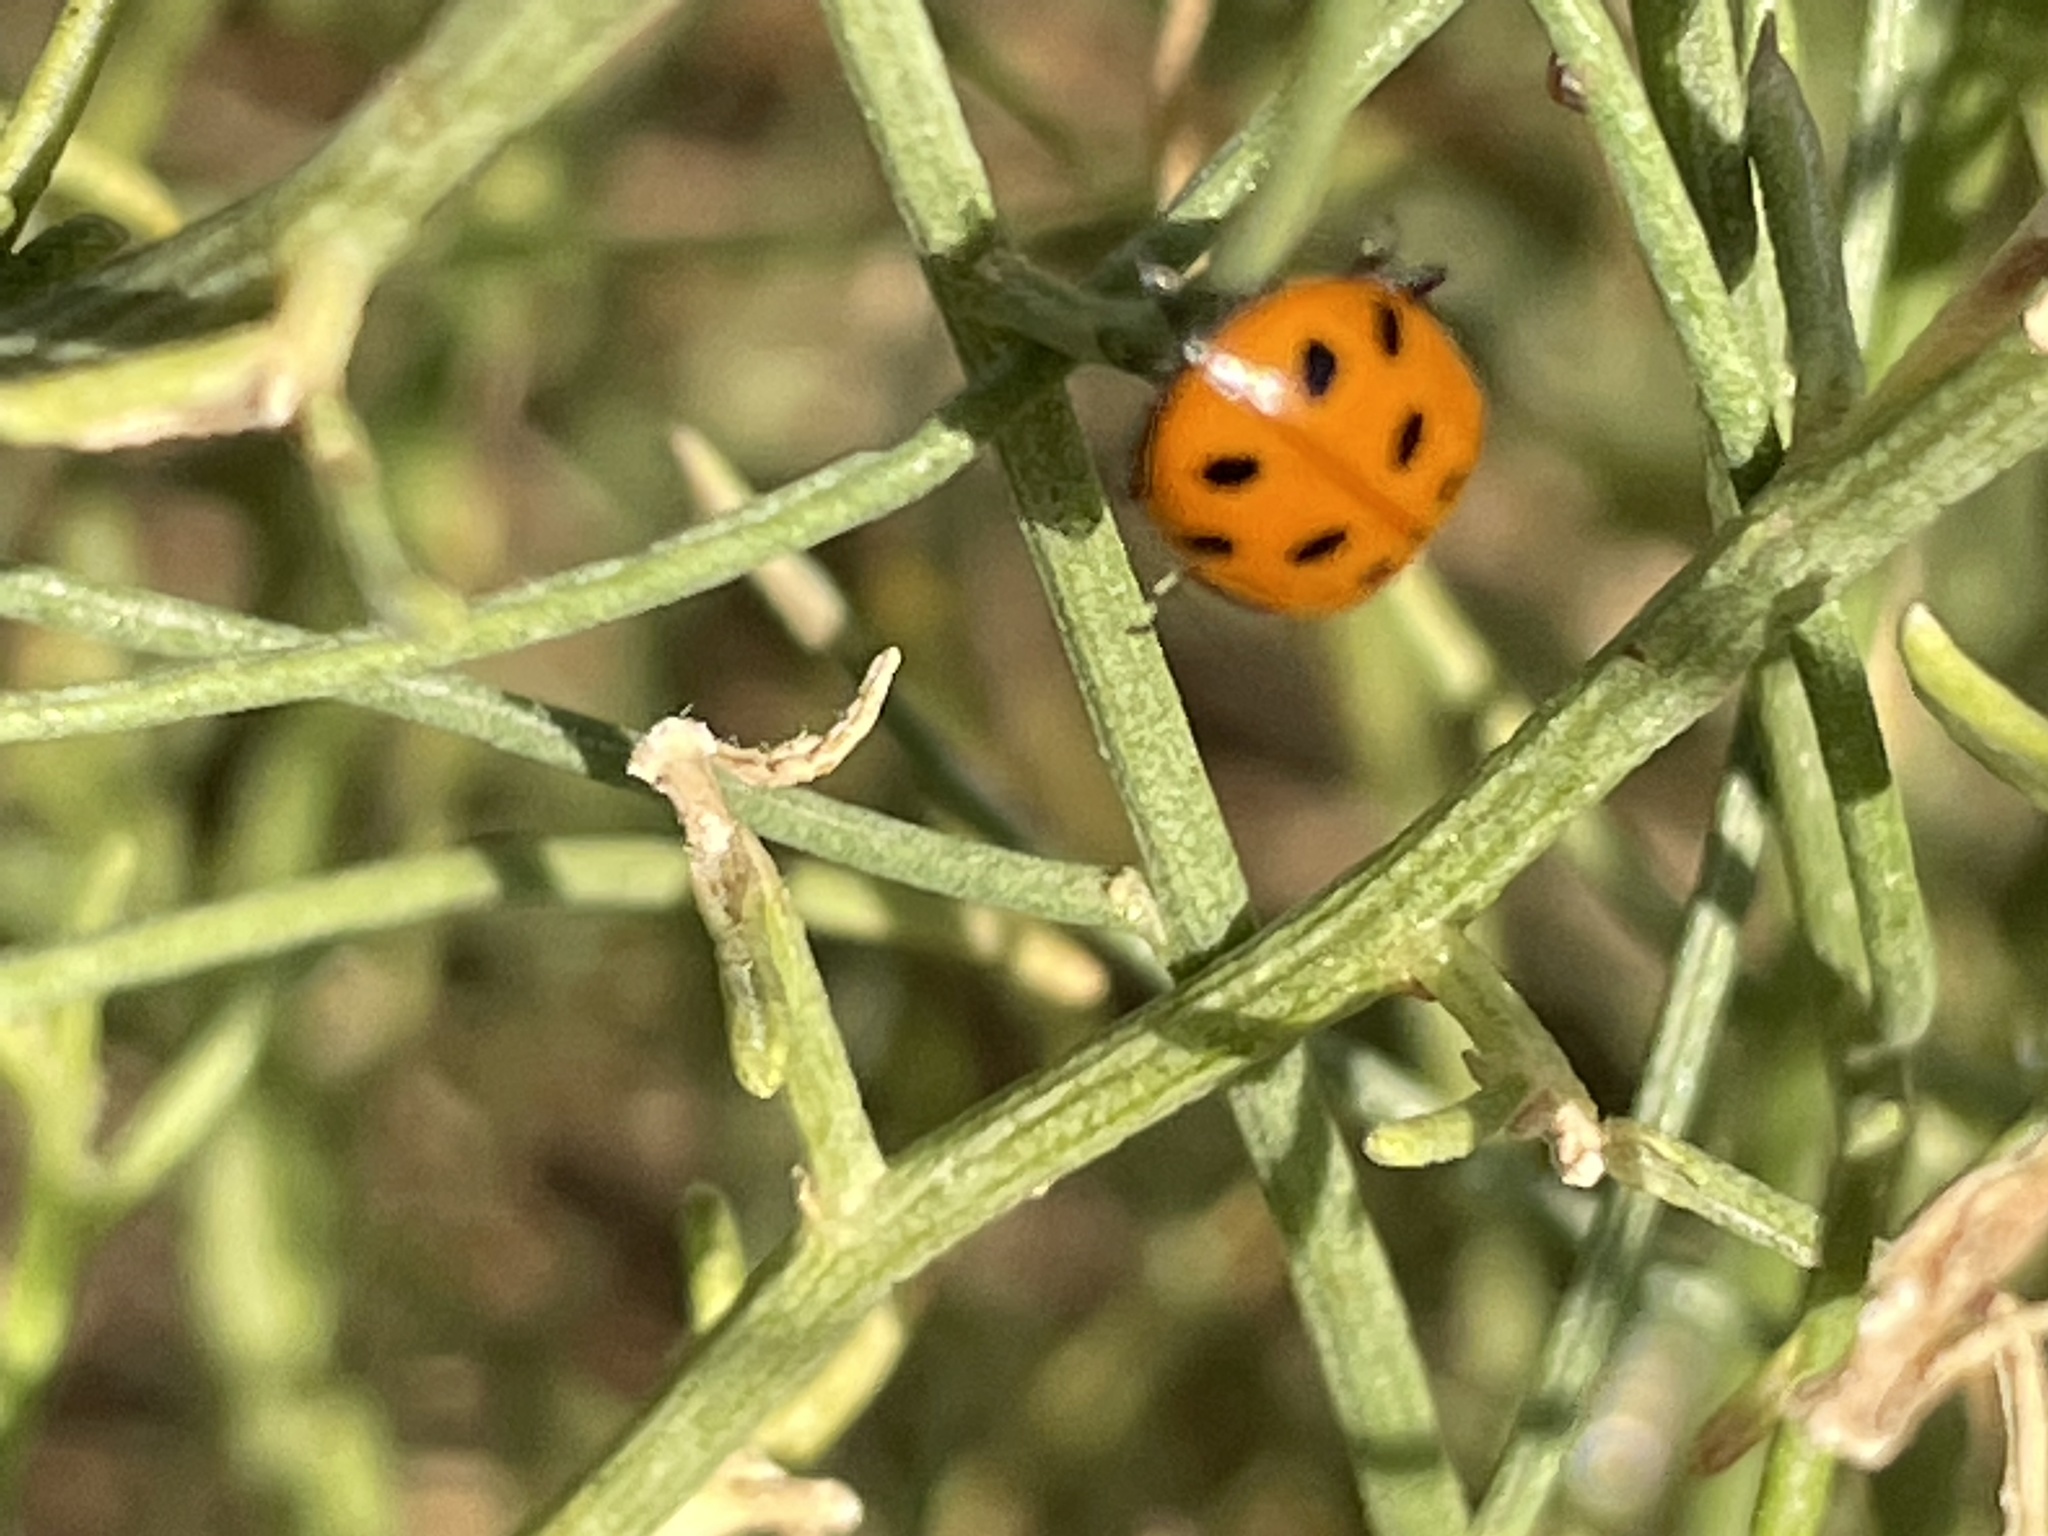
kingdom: Animalia
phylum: Arthropoda
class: Insecta
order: Coleoptera
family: Coccinellidae
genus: Hippodamia
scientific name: Hippodamia convergens
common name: Convergent lady beetle
